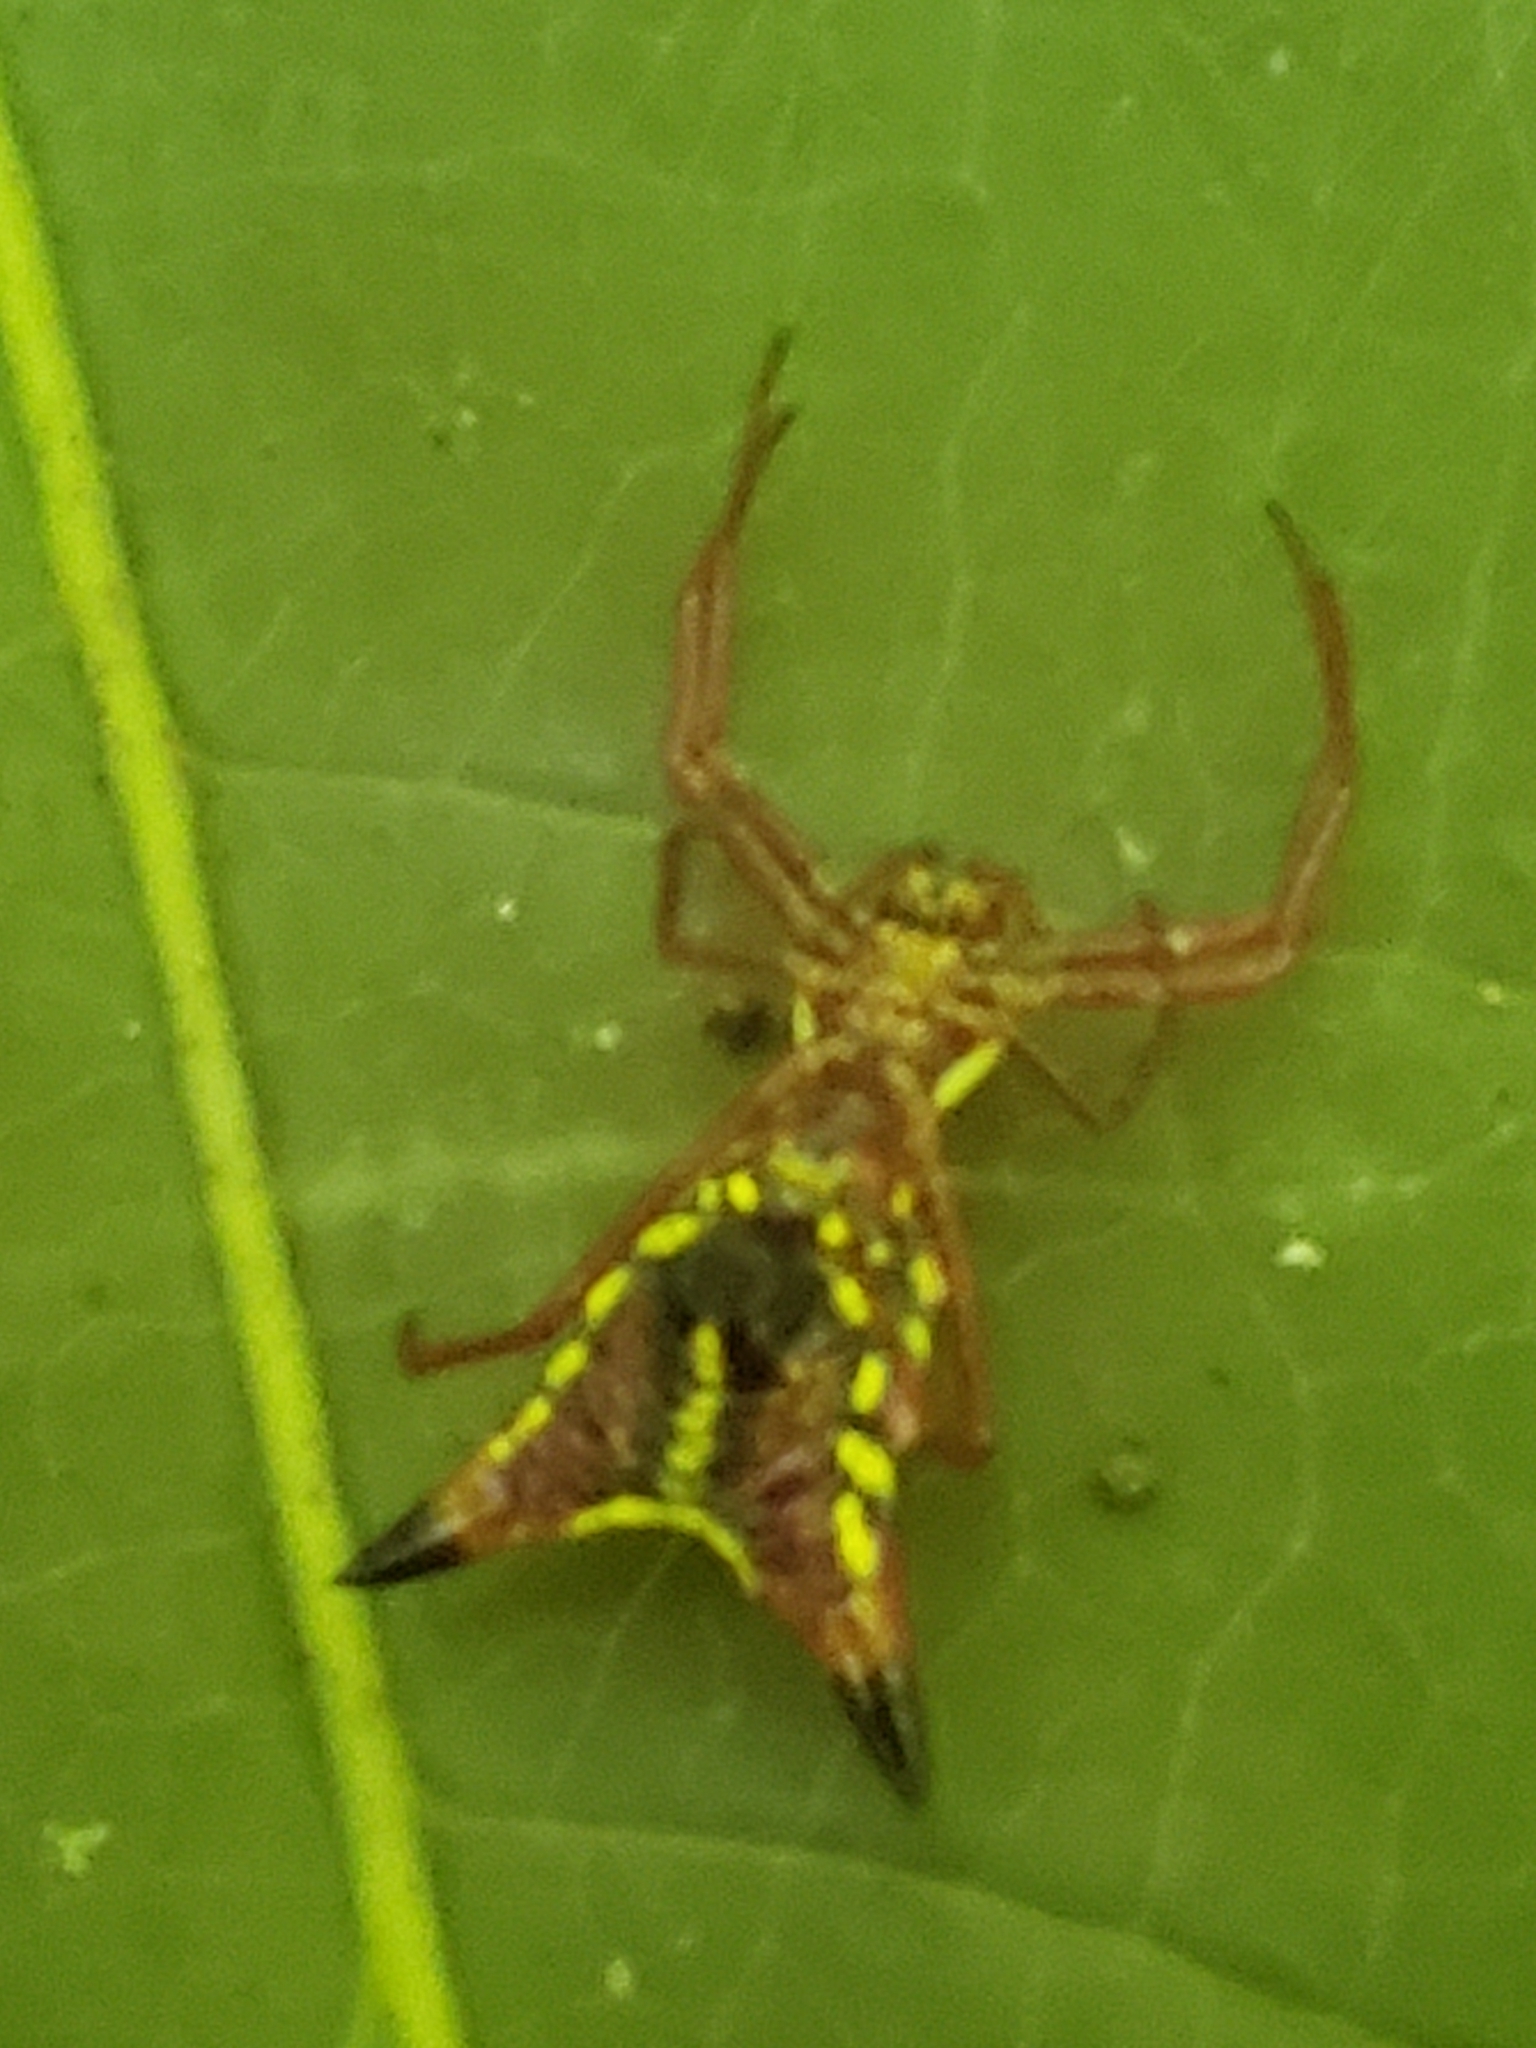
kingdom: Animalia
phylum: Arthropoda
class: Arachnida
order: Araneae
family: Araneidae
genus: Micrathena
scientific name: Micrathena sagittata
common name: Orb weavers
